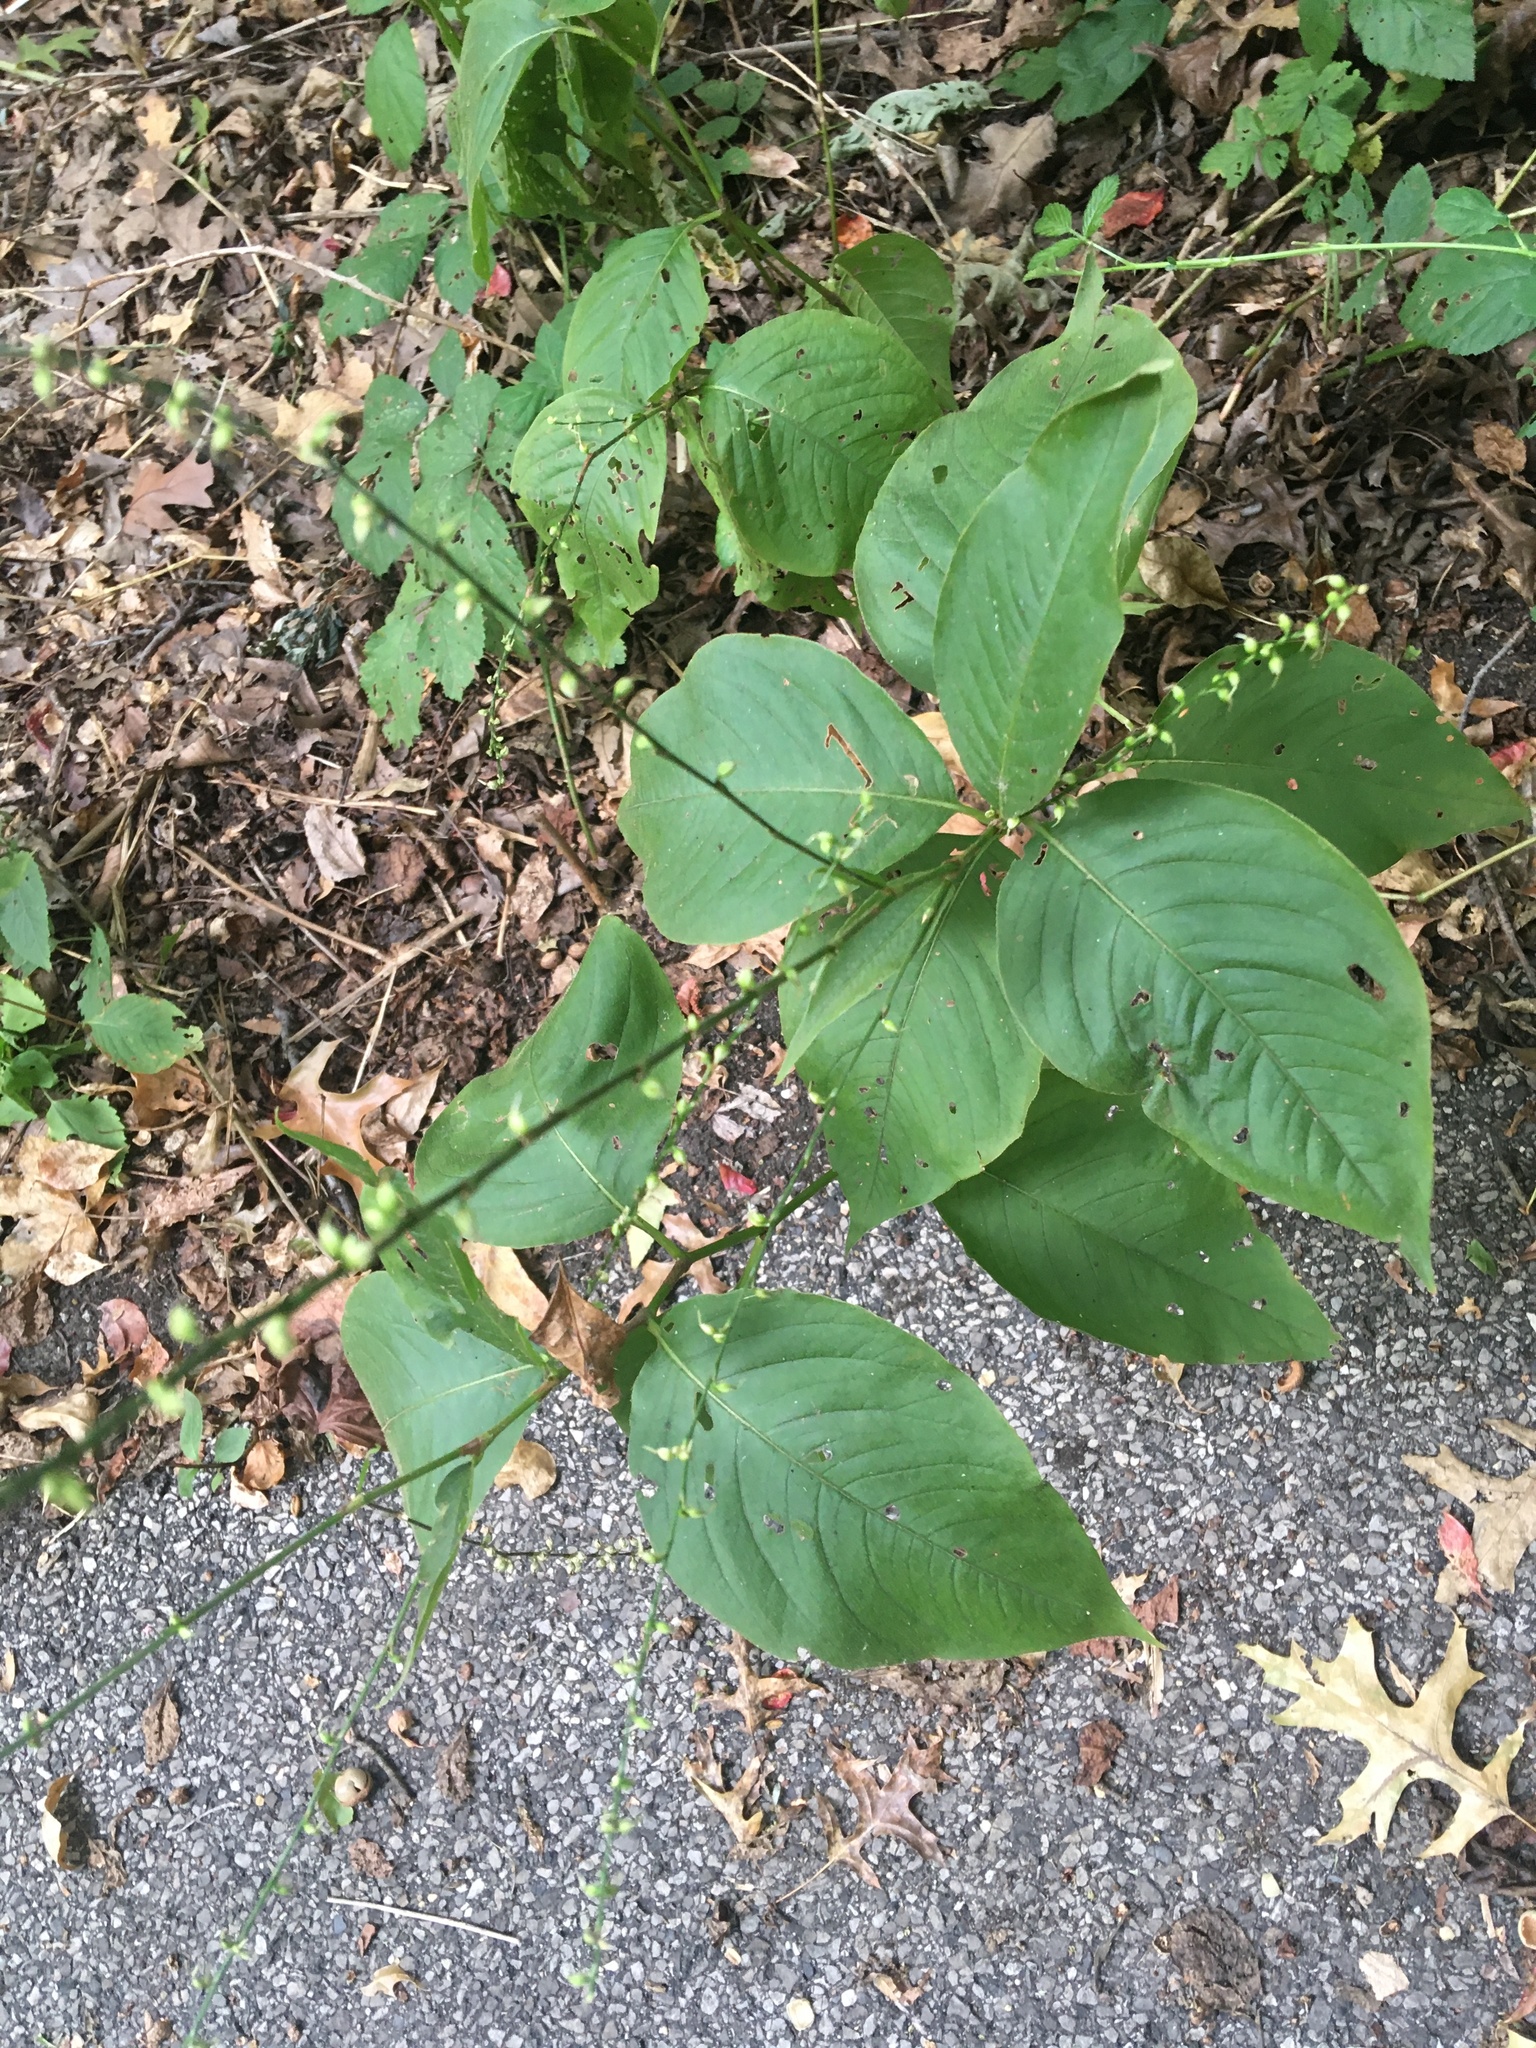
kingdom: Plantae
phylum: Tracheophyta
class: Magnoliopsida
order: Caryophyllales
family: Polygonaceae
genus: Persicaria
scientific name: Persicaria virginiana
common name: Jumpseed
